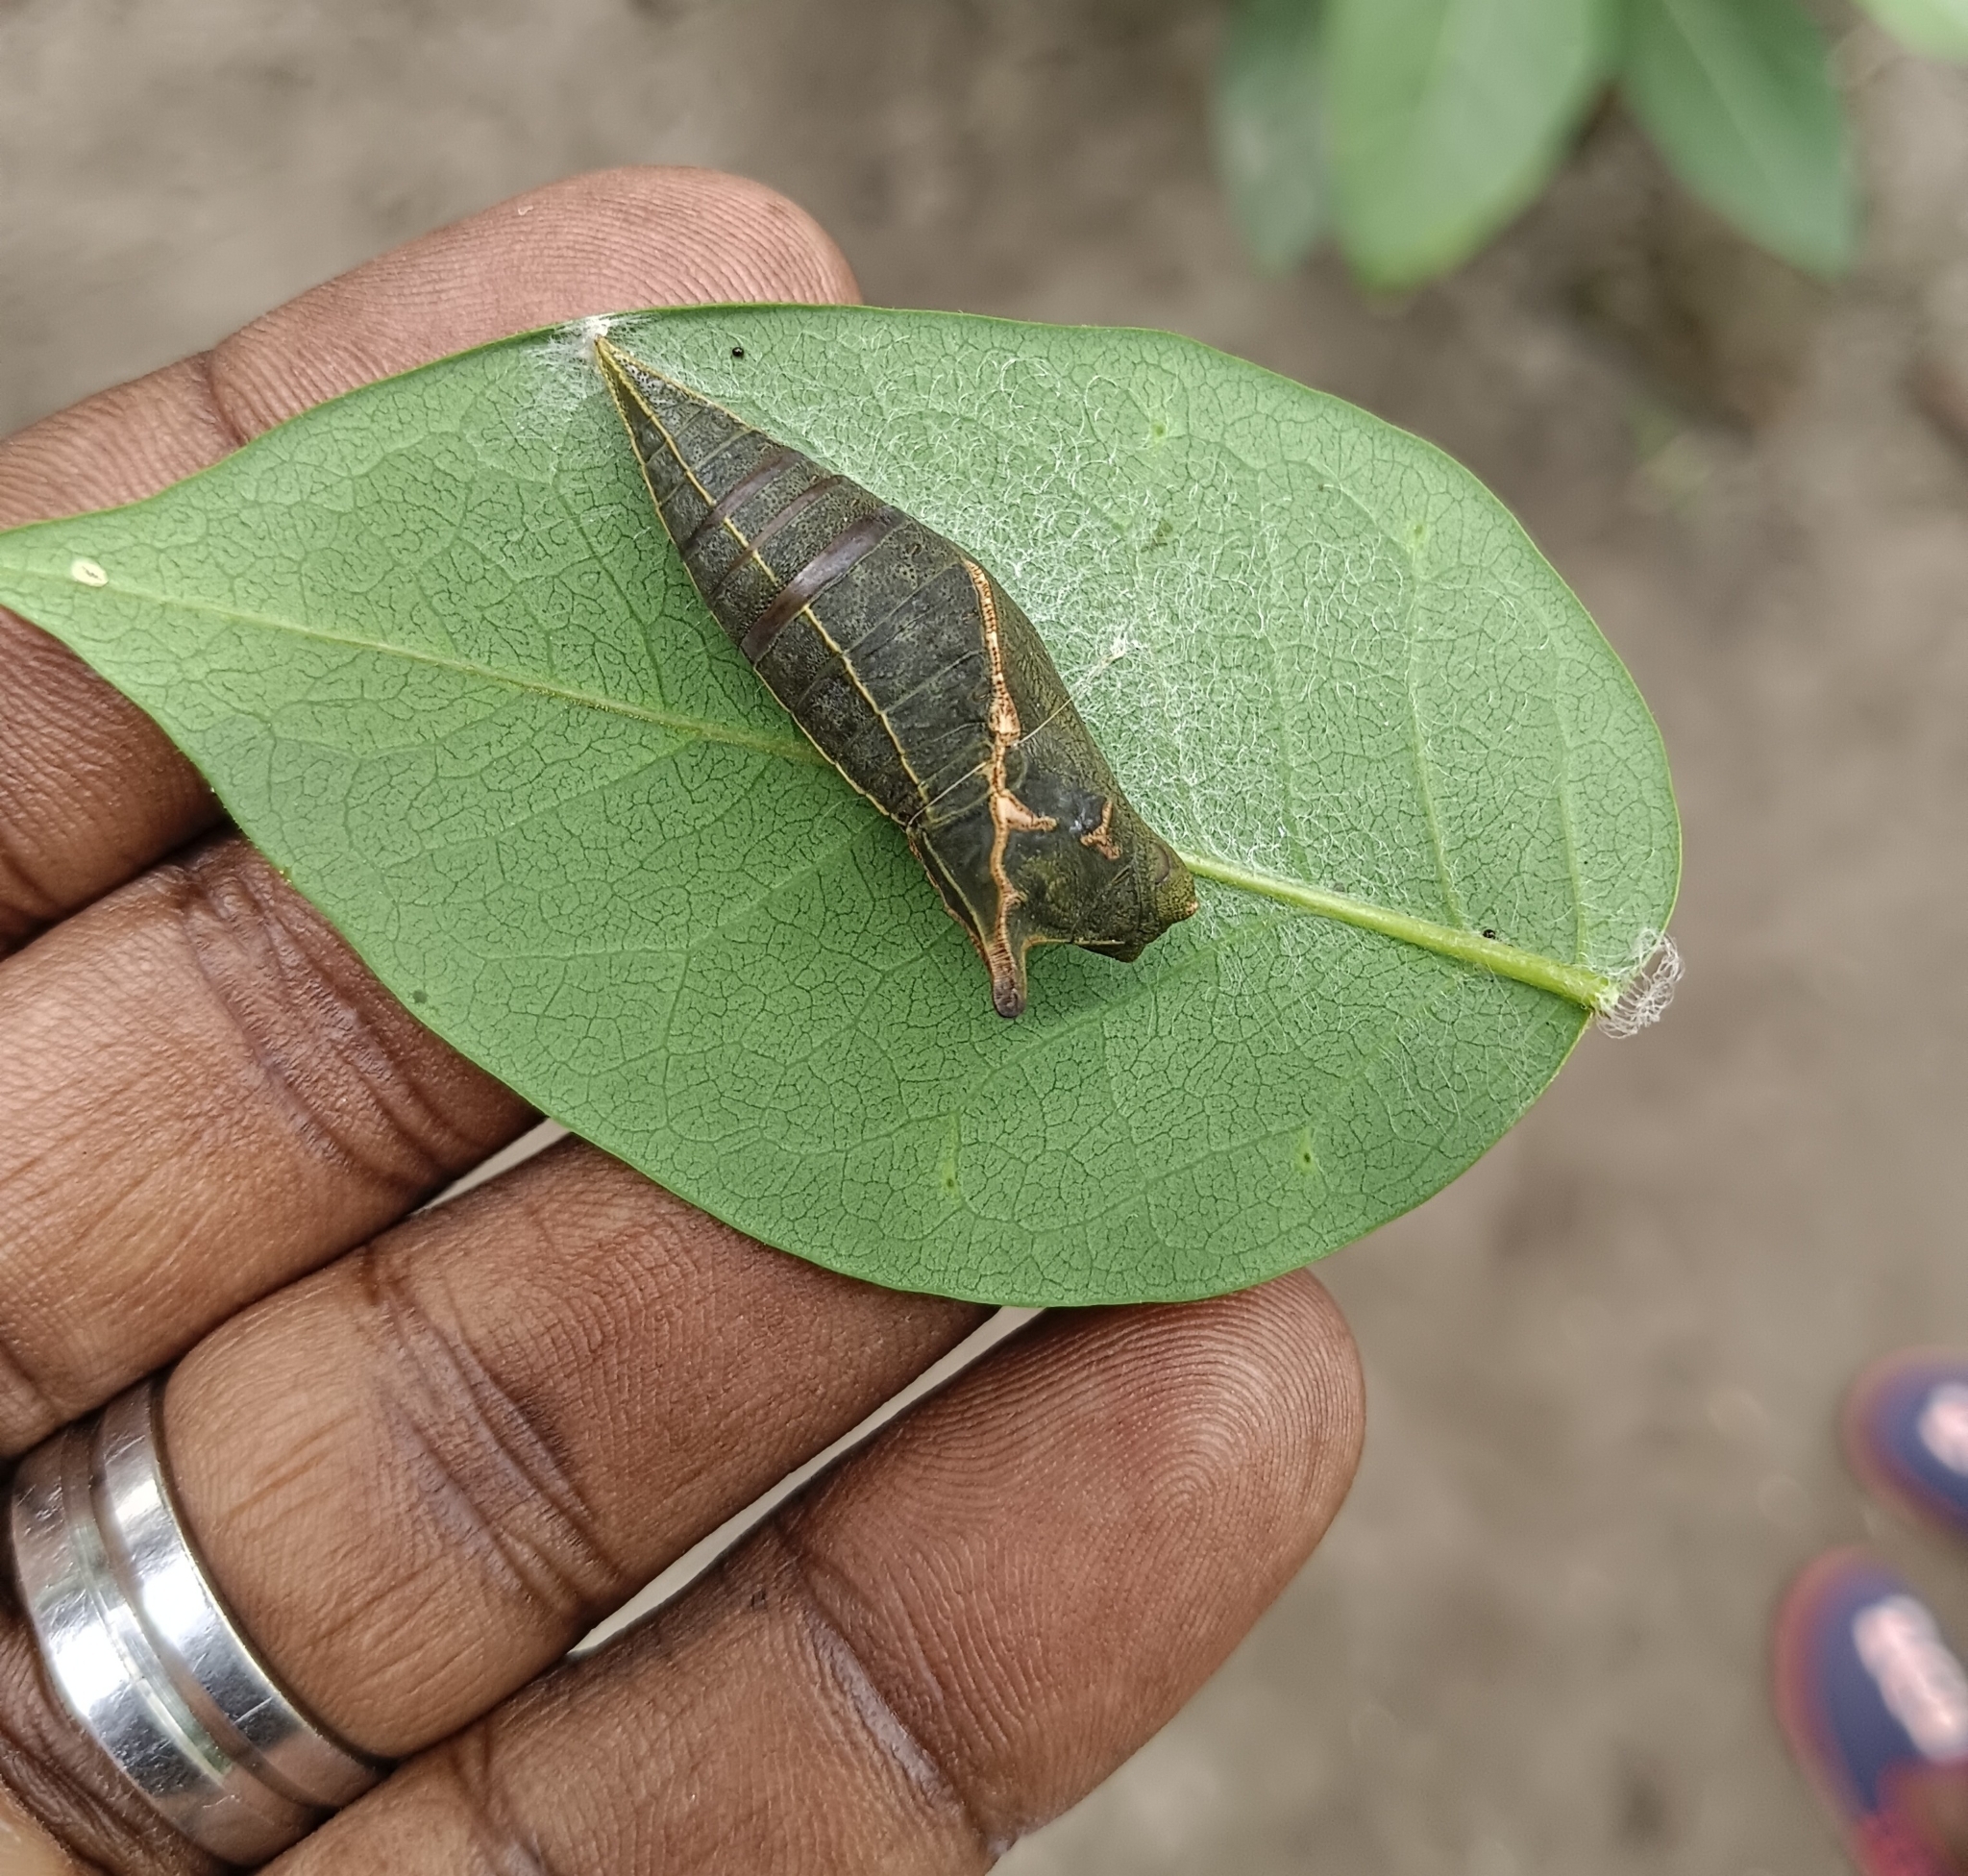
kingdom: Animalia
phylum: Arthropoda
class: Insecta
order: Lepidoptera
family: Papilionidae
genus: Papilio
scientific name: Papilio demoleus
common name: Lime butterfly
